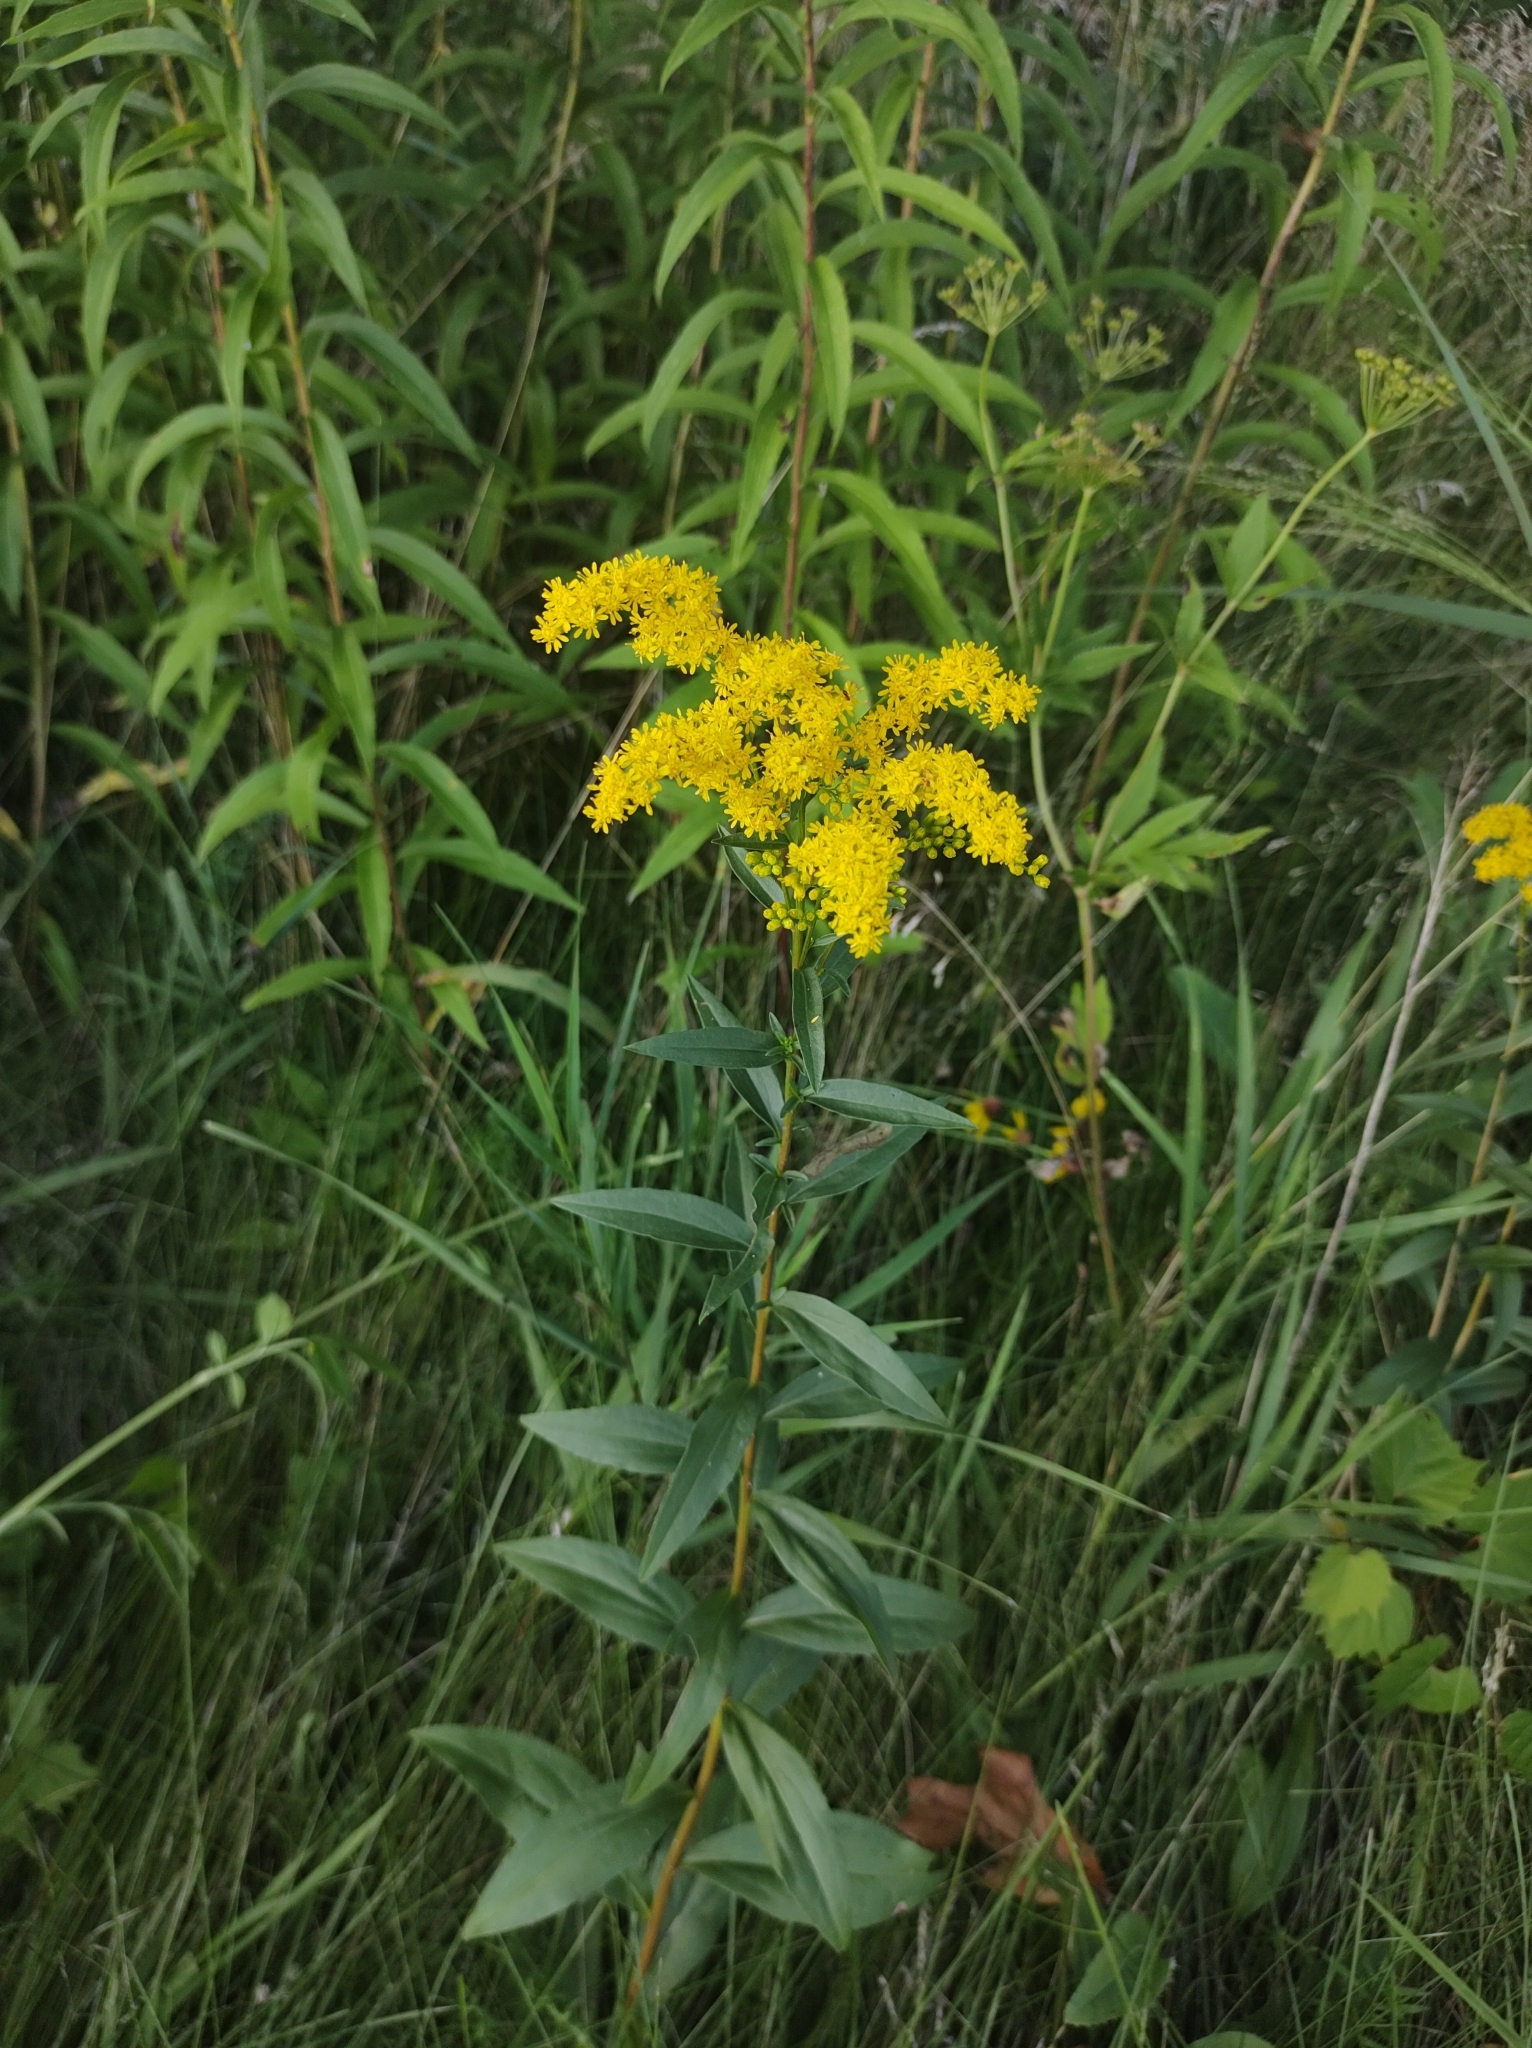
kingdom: Plantae
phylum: Tracheophyta
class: Magnoliopsida
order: Asterales
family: Asteraceae
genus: Solidago
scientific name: Solidago juncea
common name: Early goldenrod
